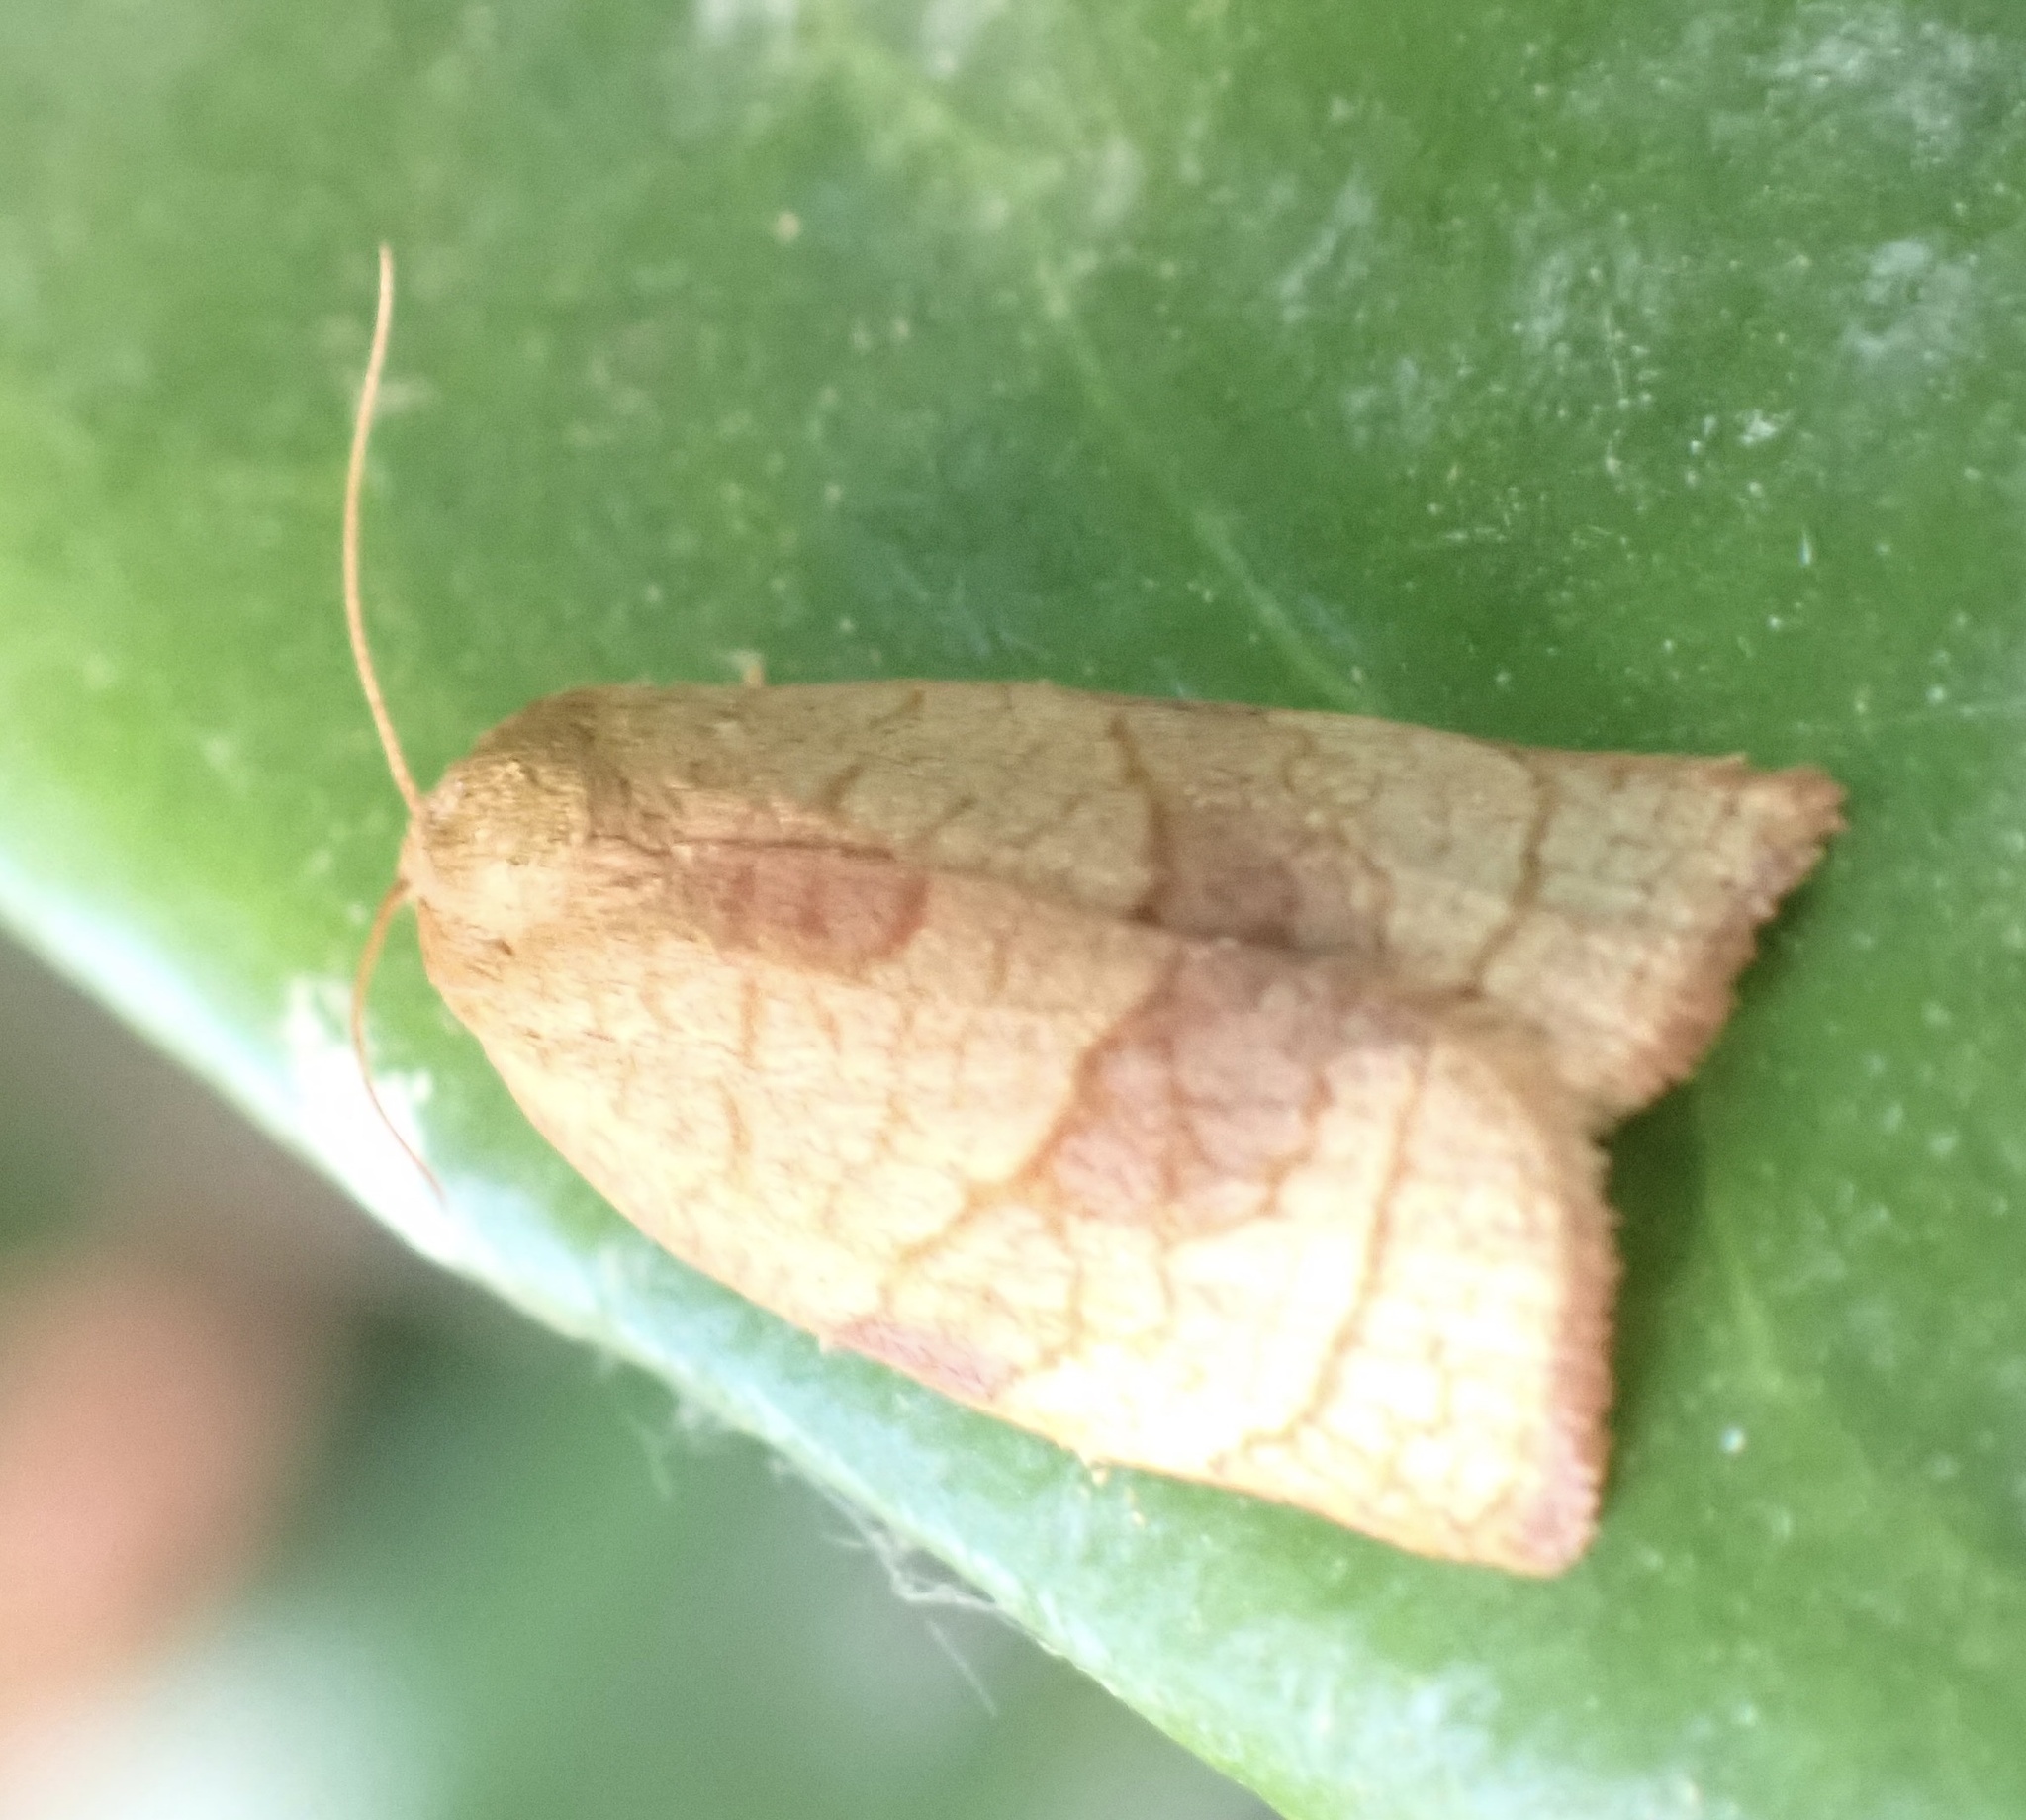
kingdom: Animalia
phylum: Arthropoda
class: Insecta
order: Lepidoptera
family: Tortricidae
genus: Cacoecimorpha
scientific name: Cacoecimorpha pronubana
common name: Carnation tortrix
